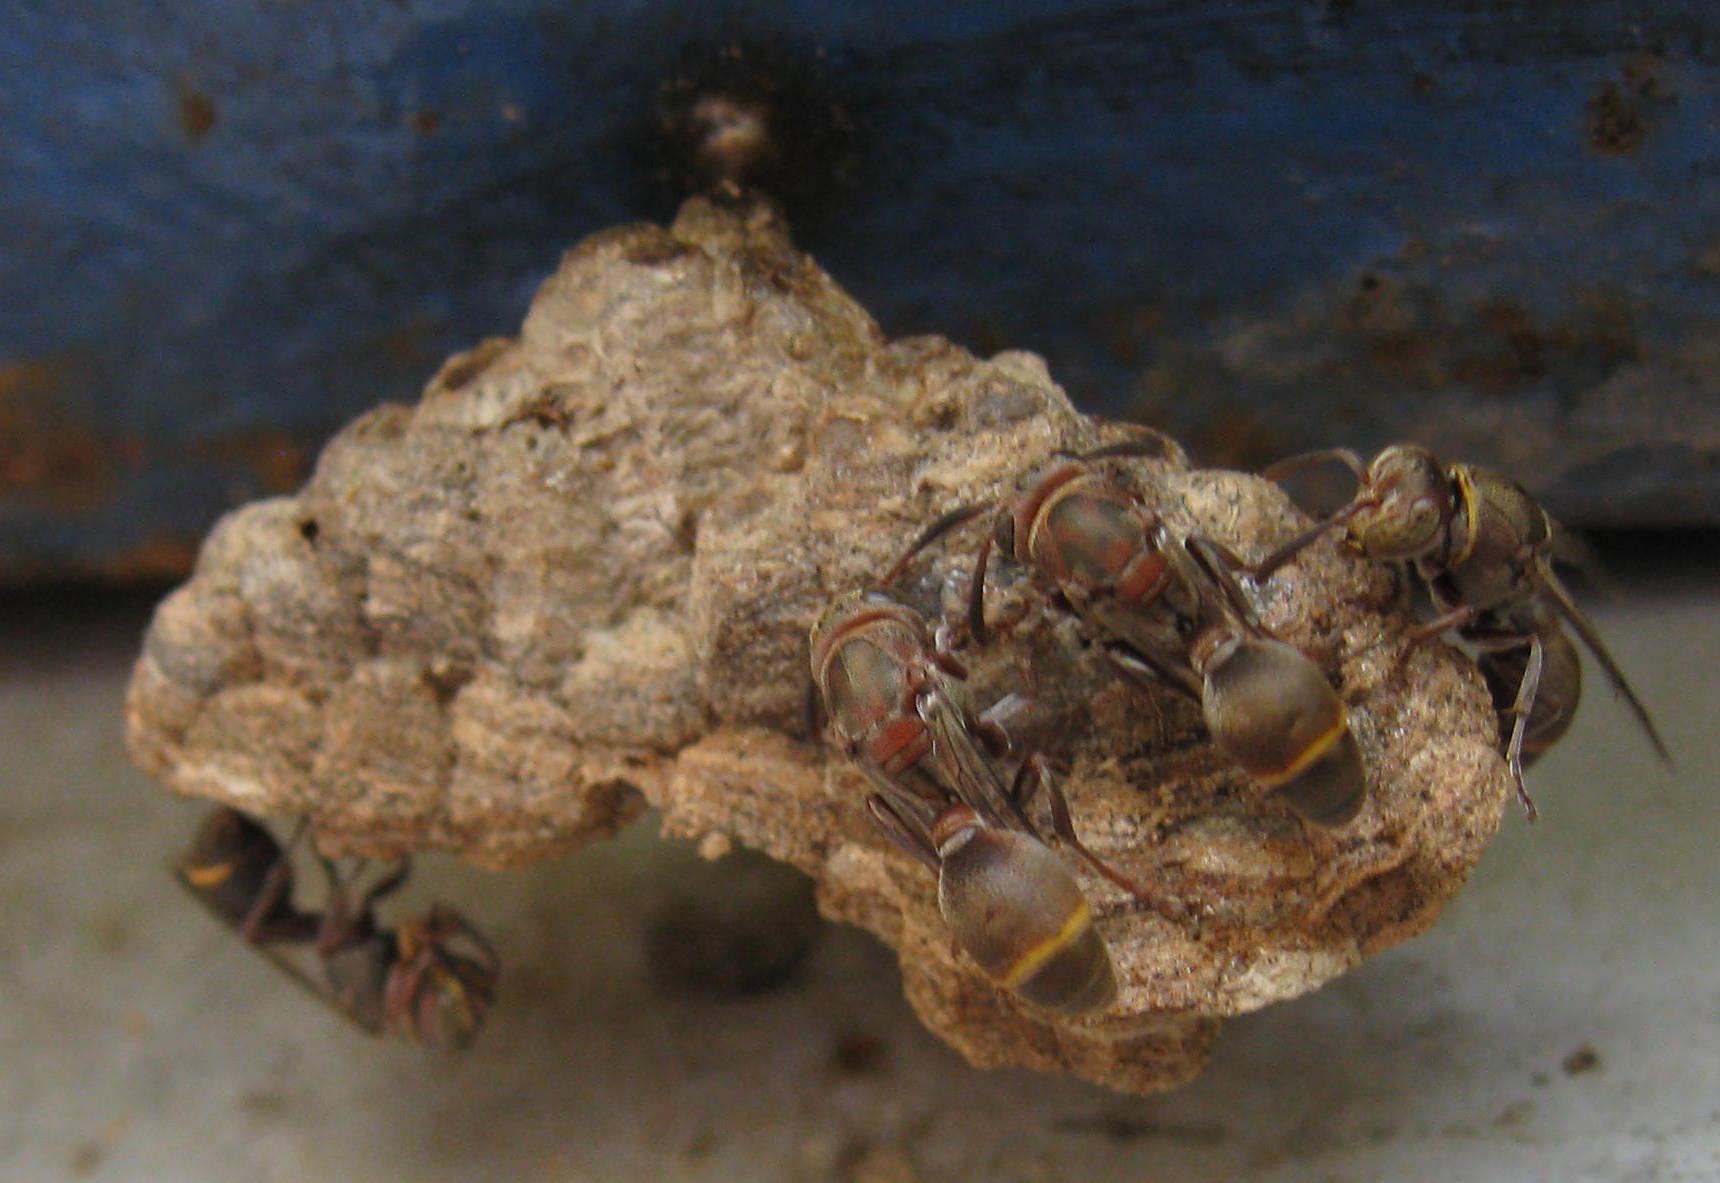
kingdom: Animalia
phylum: Arthropoda
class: Insecta
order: Hymenoptera
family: Vespidae
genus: Ropalidia
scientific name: Ropalidia capensis
